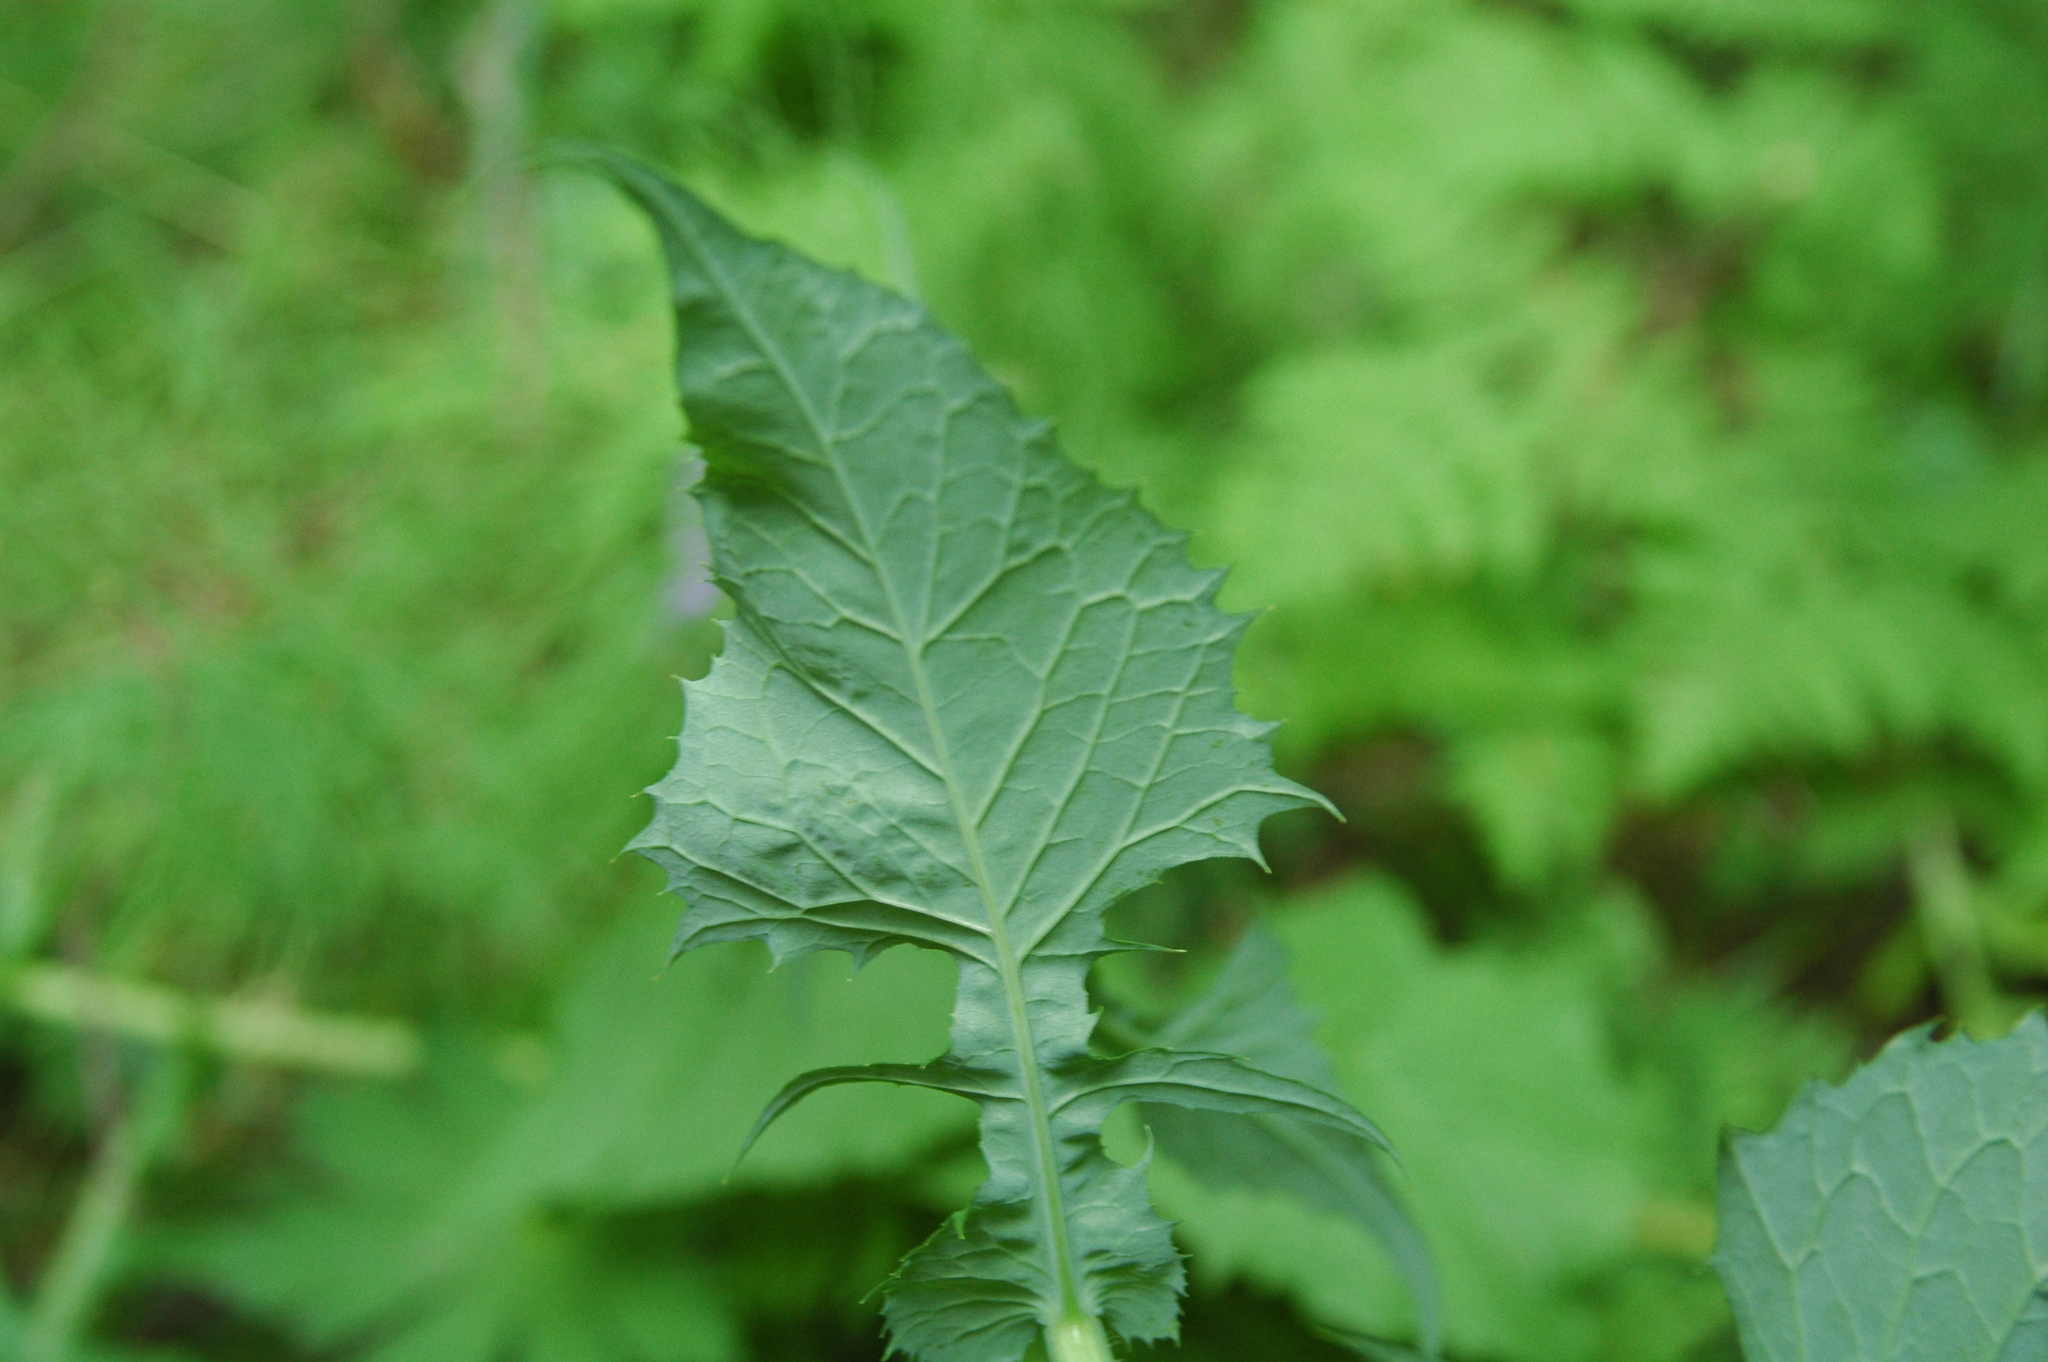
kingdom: Plantae
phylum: Tracheophyta
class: Magnoliopsida
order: Asterales
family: Asteraceae
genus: Cicerbita
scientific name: Cicerbita alpina
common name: Alpine blue-sow-thistle
